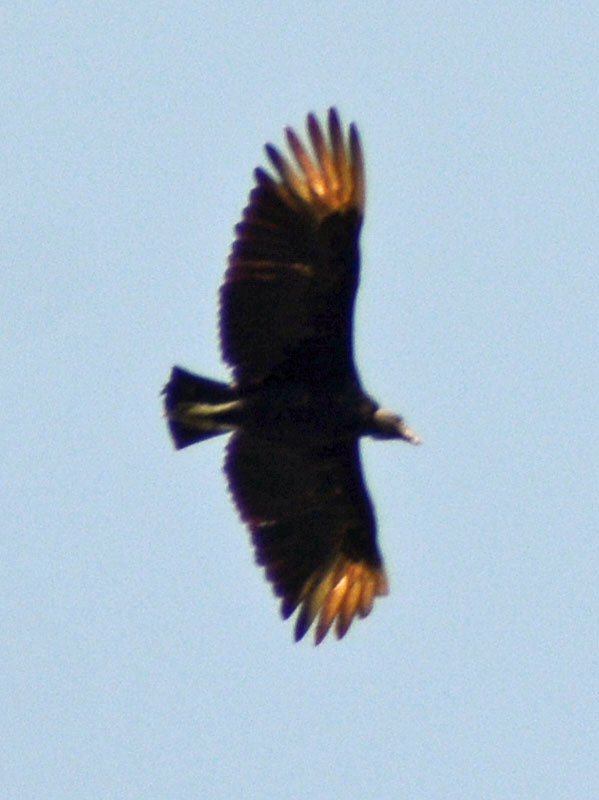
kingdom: Animalia
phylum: Chordata
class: Aves
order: Accipitriformes
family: Cathartidae
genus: Coragyps
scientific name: Coragyps atratus
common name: Black vulture
